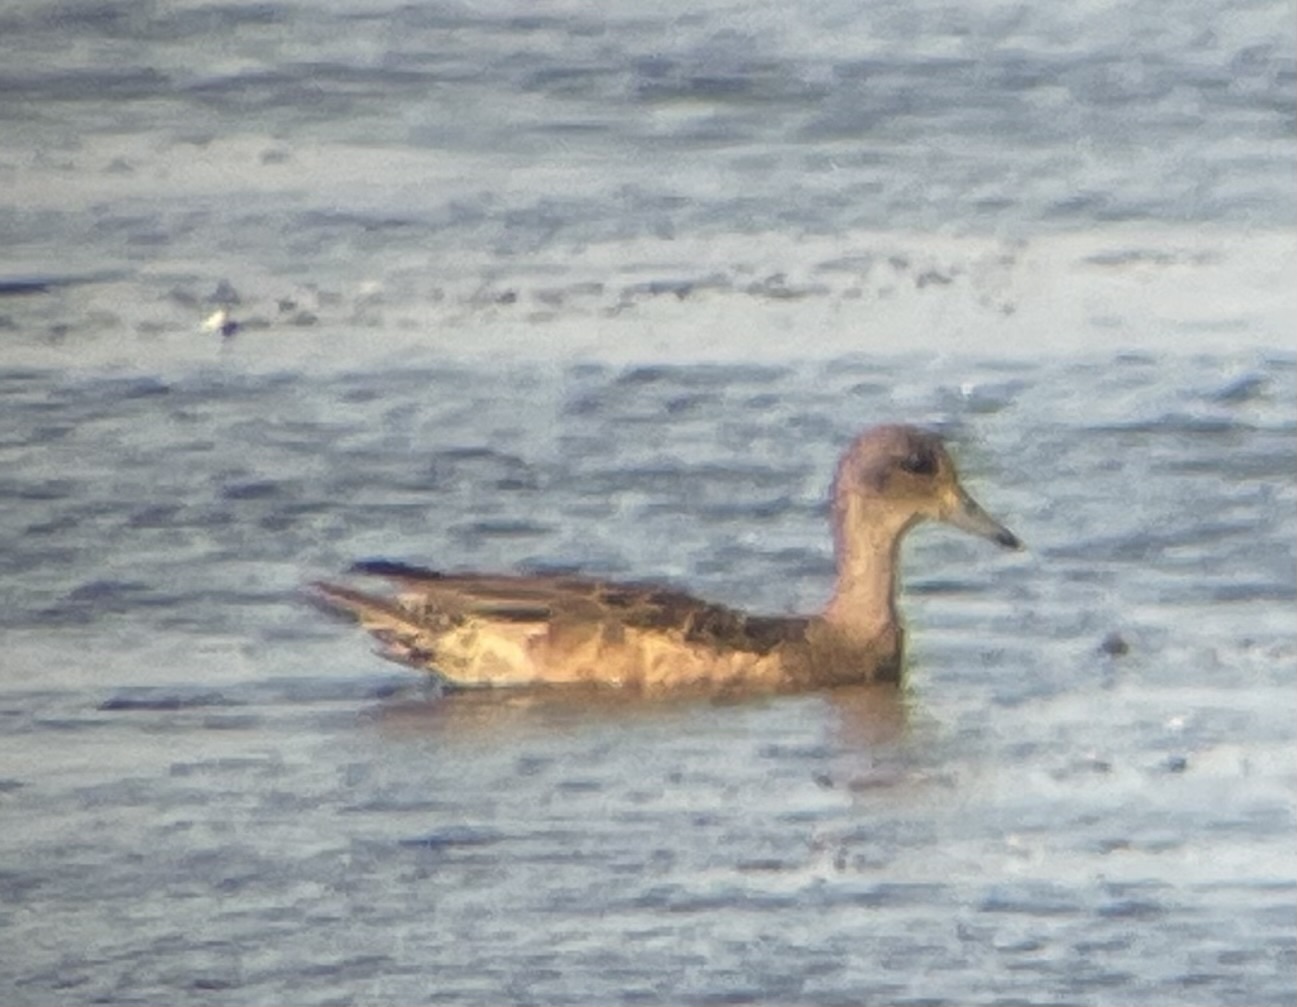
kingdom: Animalia
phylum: Chordata
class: Aves
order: Anseriformes
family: Anatidae
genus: Mareca
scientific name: Mareca americana
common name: American wigeon
